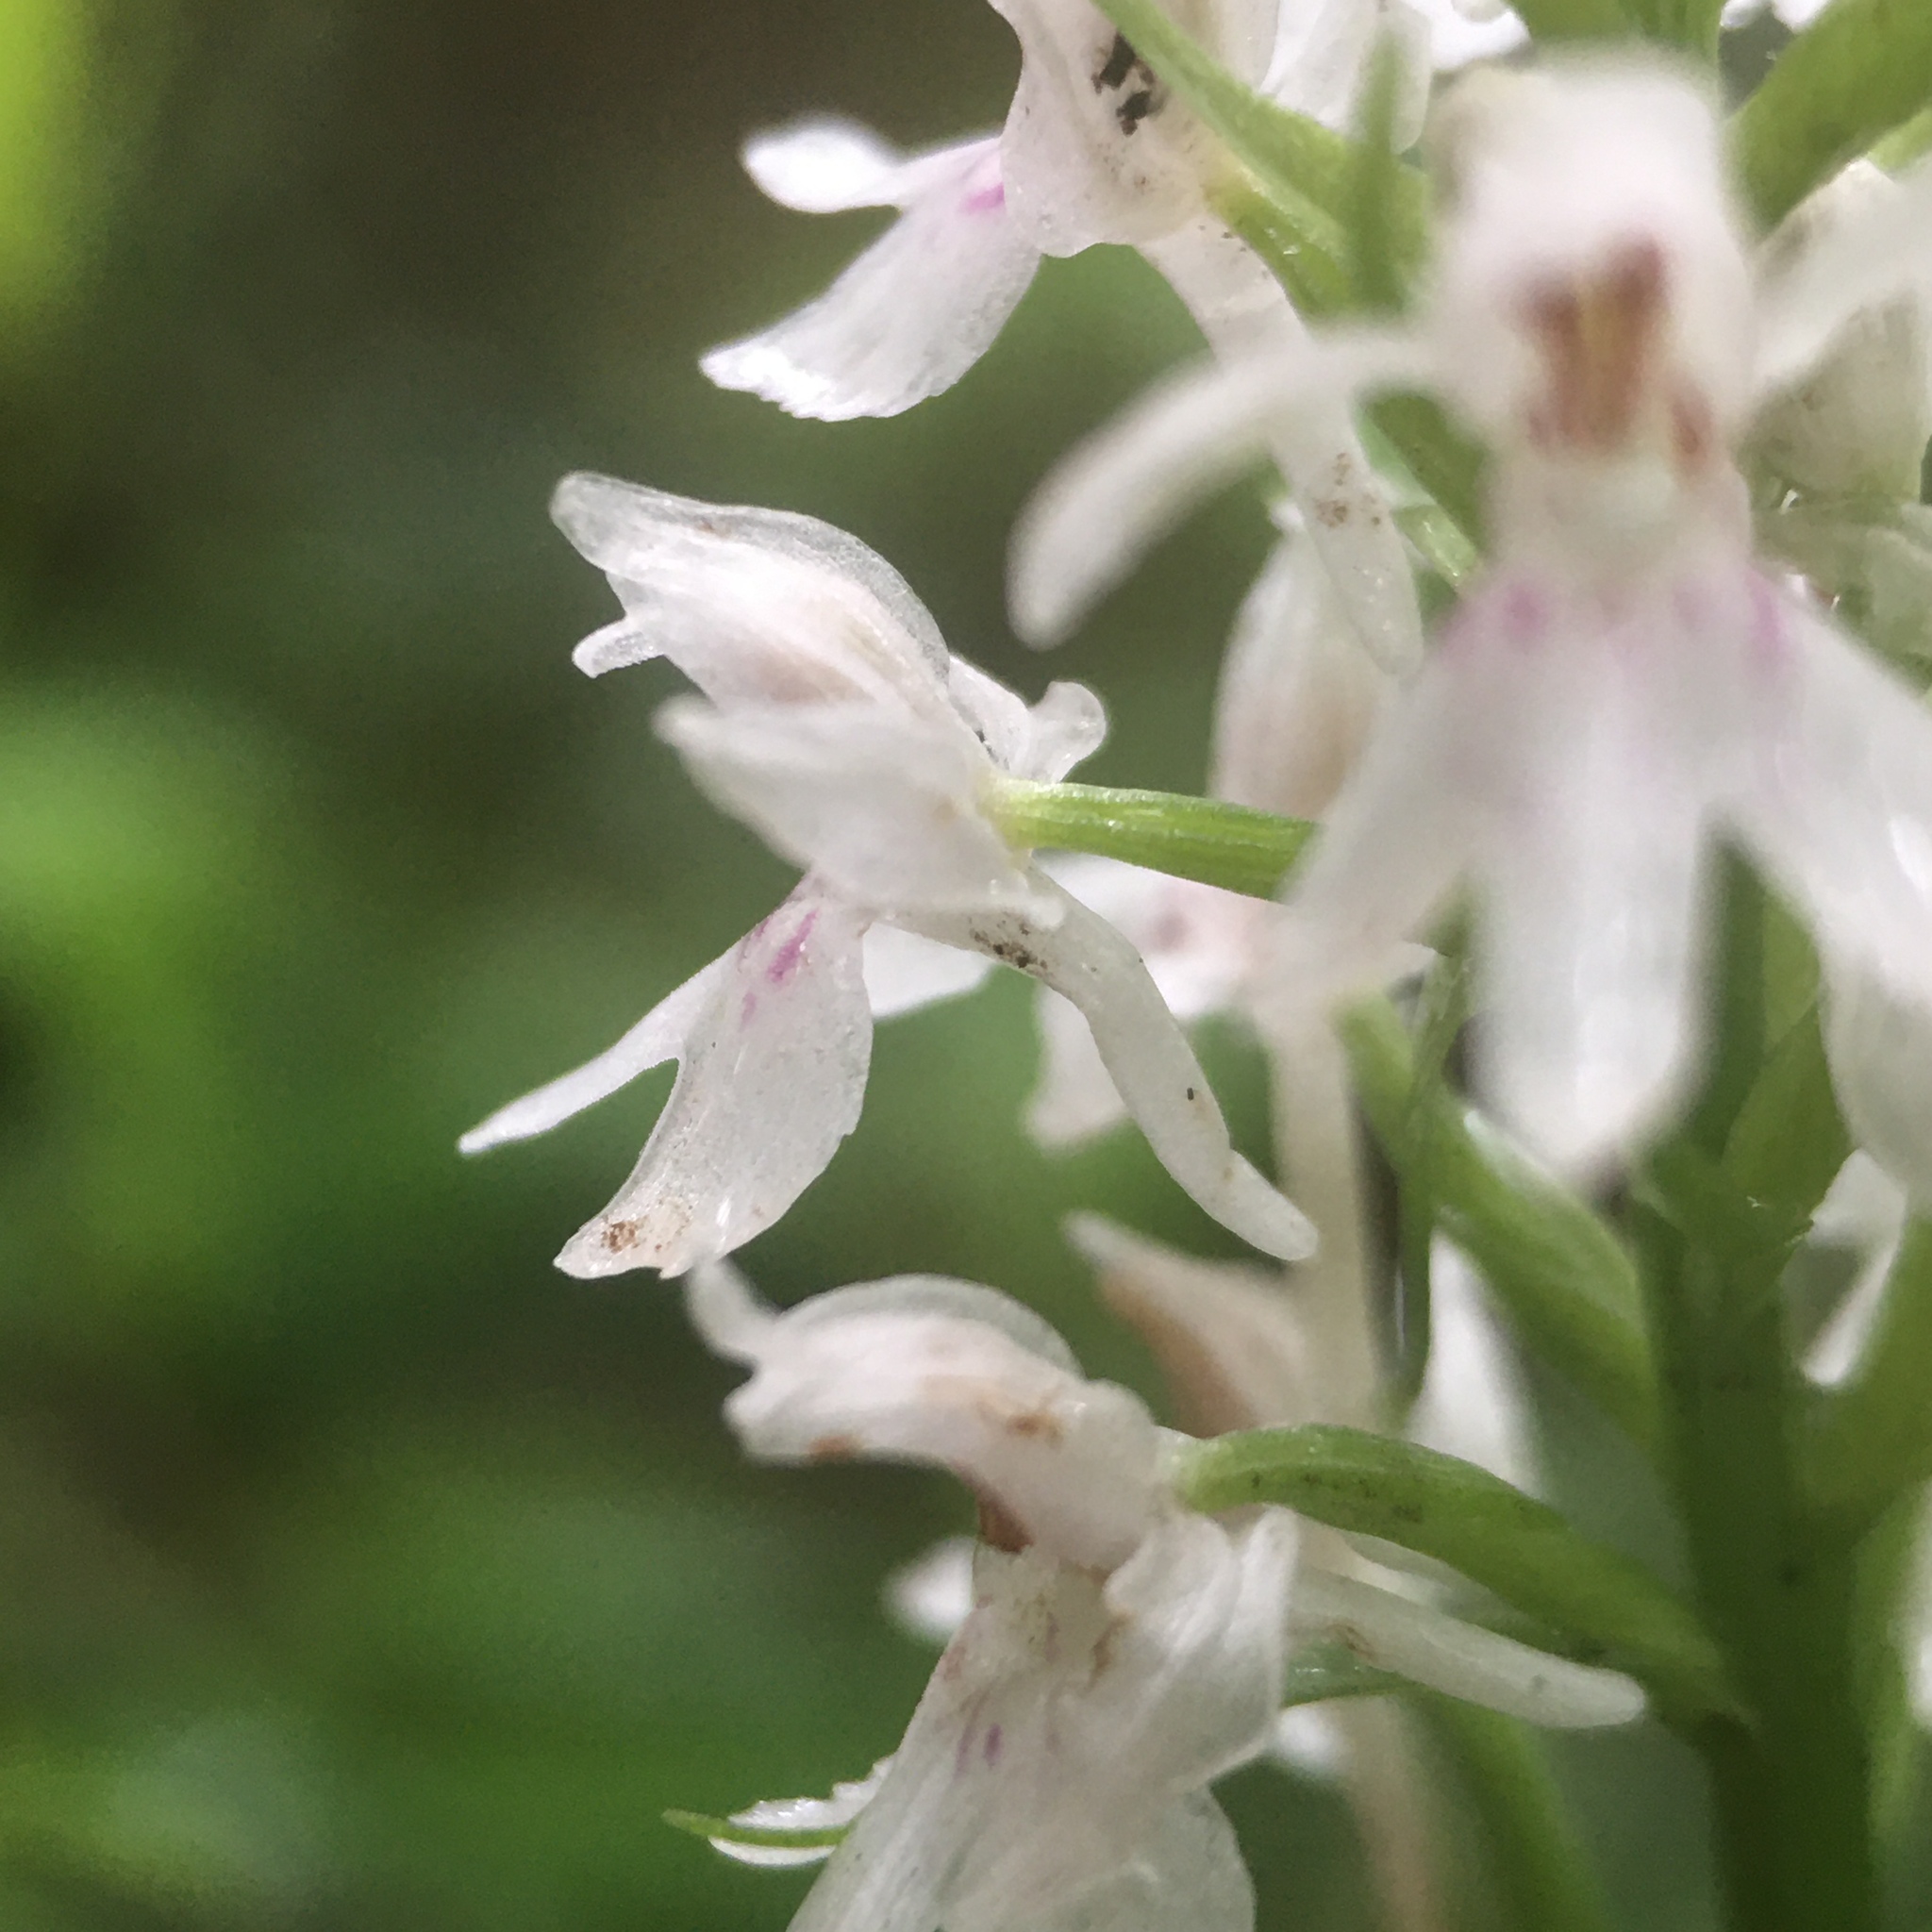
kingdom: Plantae
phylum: Tracheophyta
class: Liliopsida
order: Asparagales
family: Orchidaceae
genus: Dactylorhiza
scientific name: Dactylorhiza maculata
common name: Heath spotted-orchid
